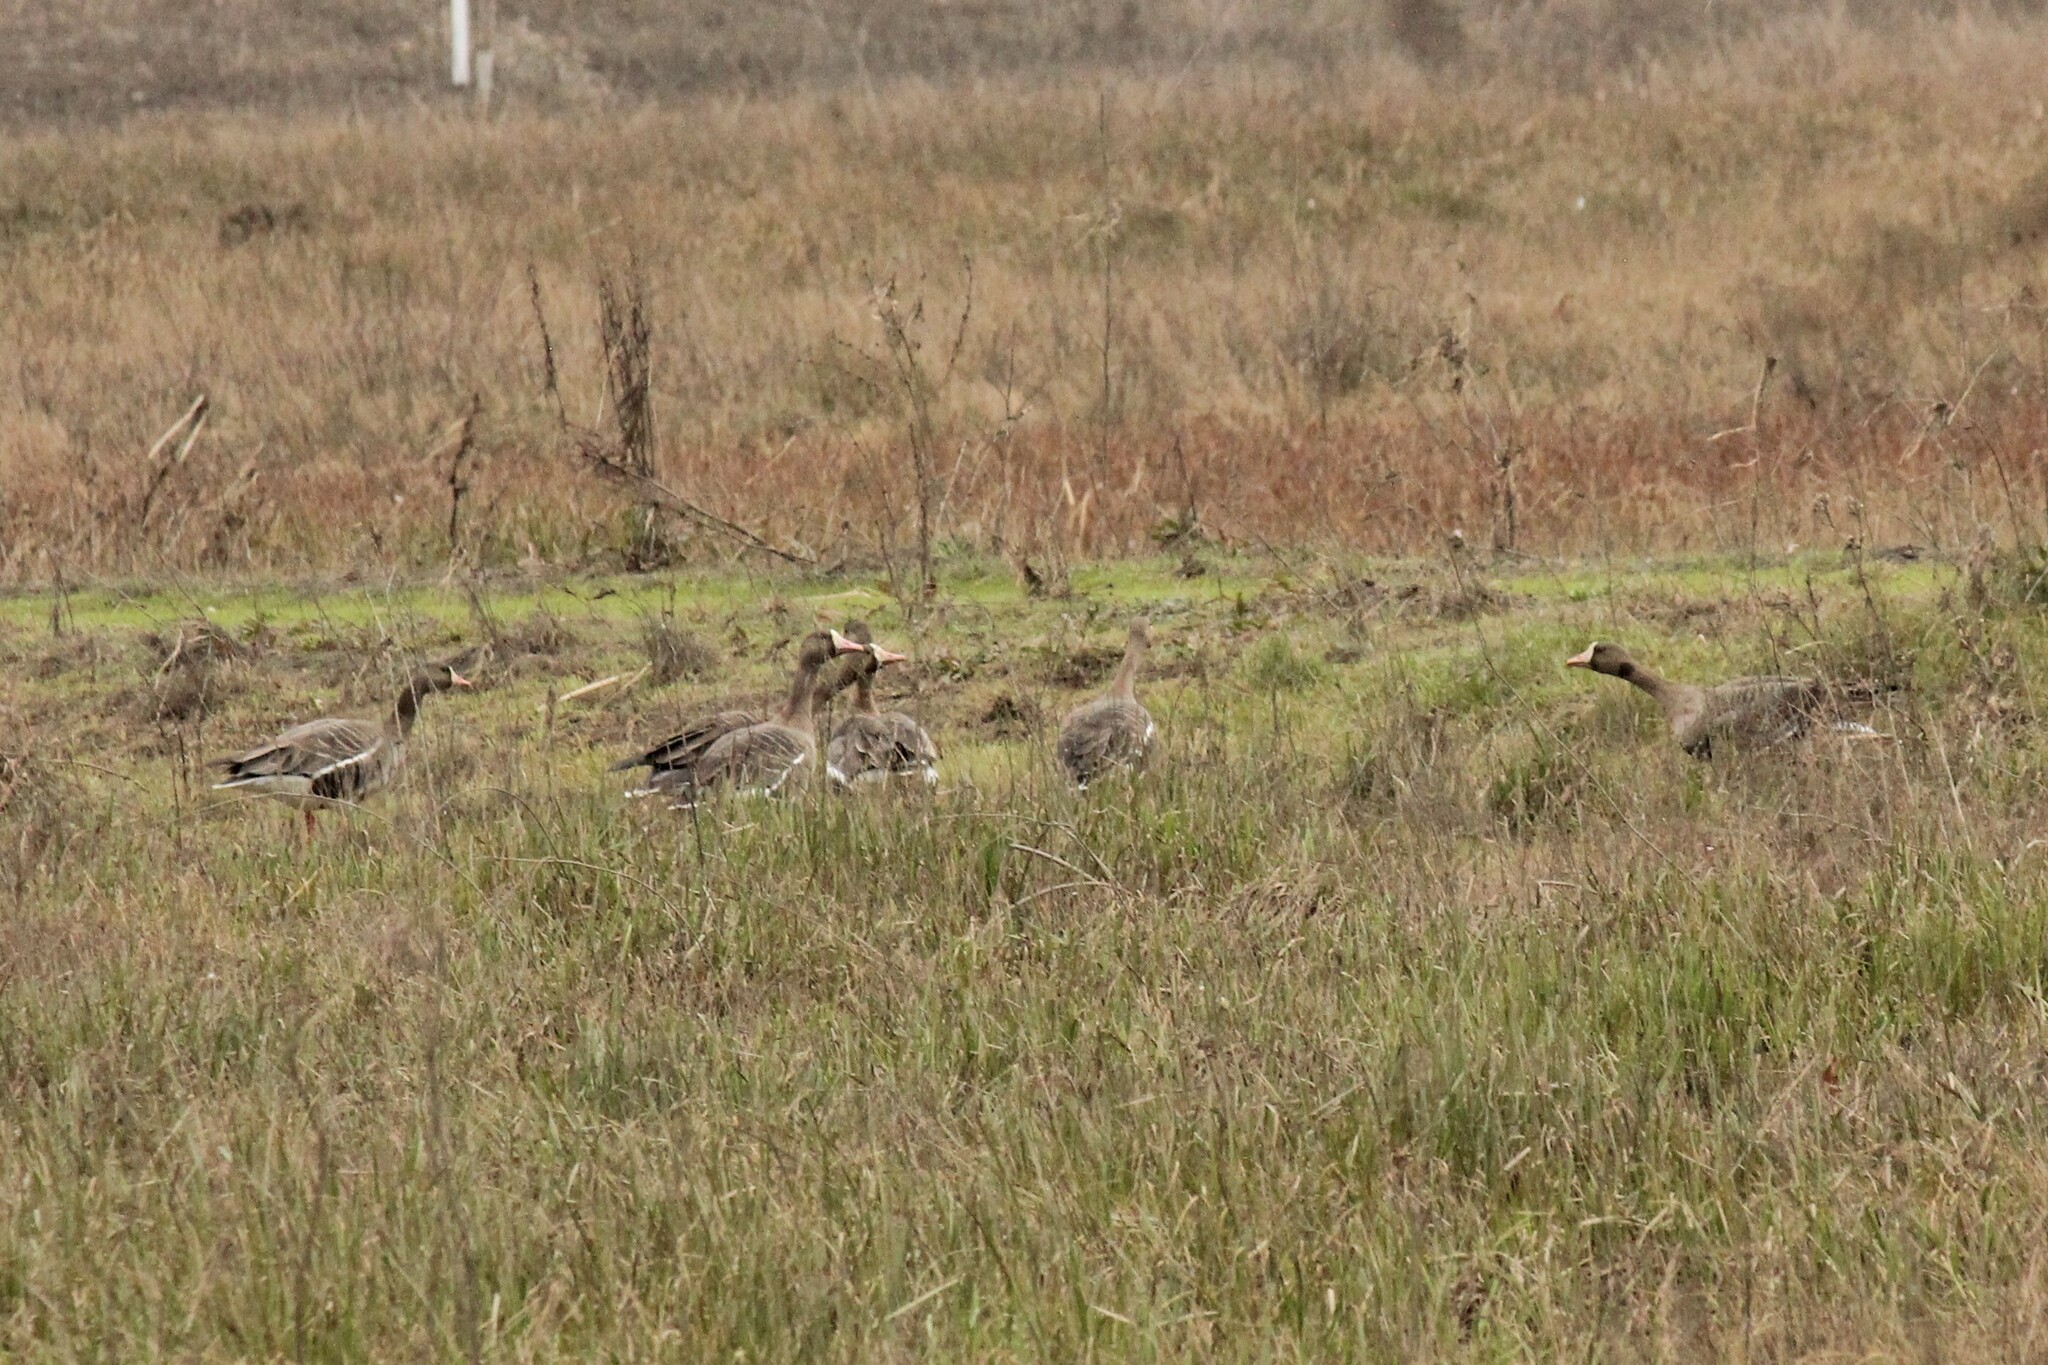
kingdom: Animalia
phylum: Chordata
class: Aves
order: Anseriformes
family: Anatidae
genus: Anser
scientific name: Anser albifrons
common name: Greater white-fronted goose
